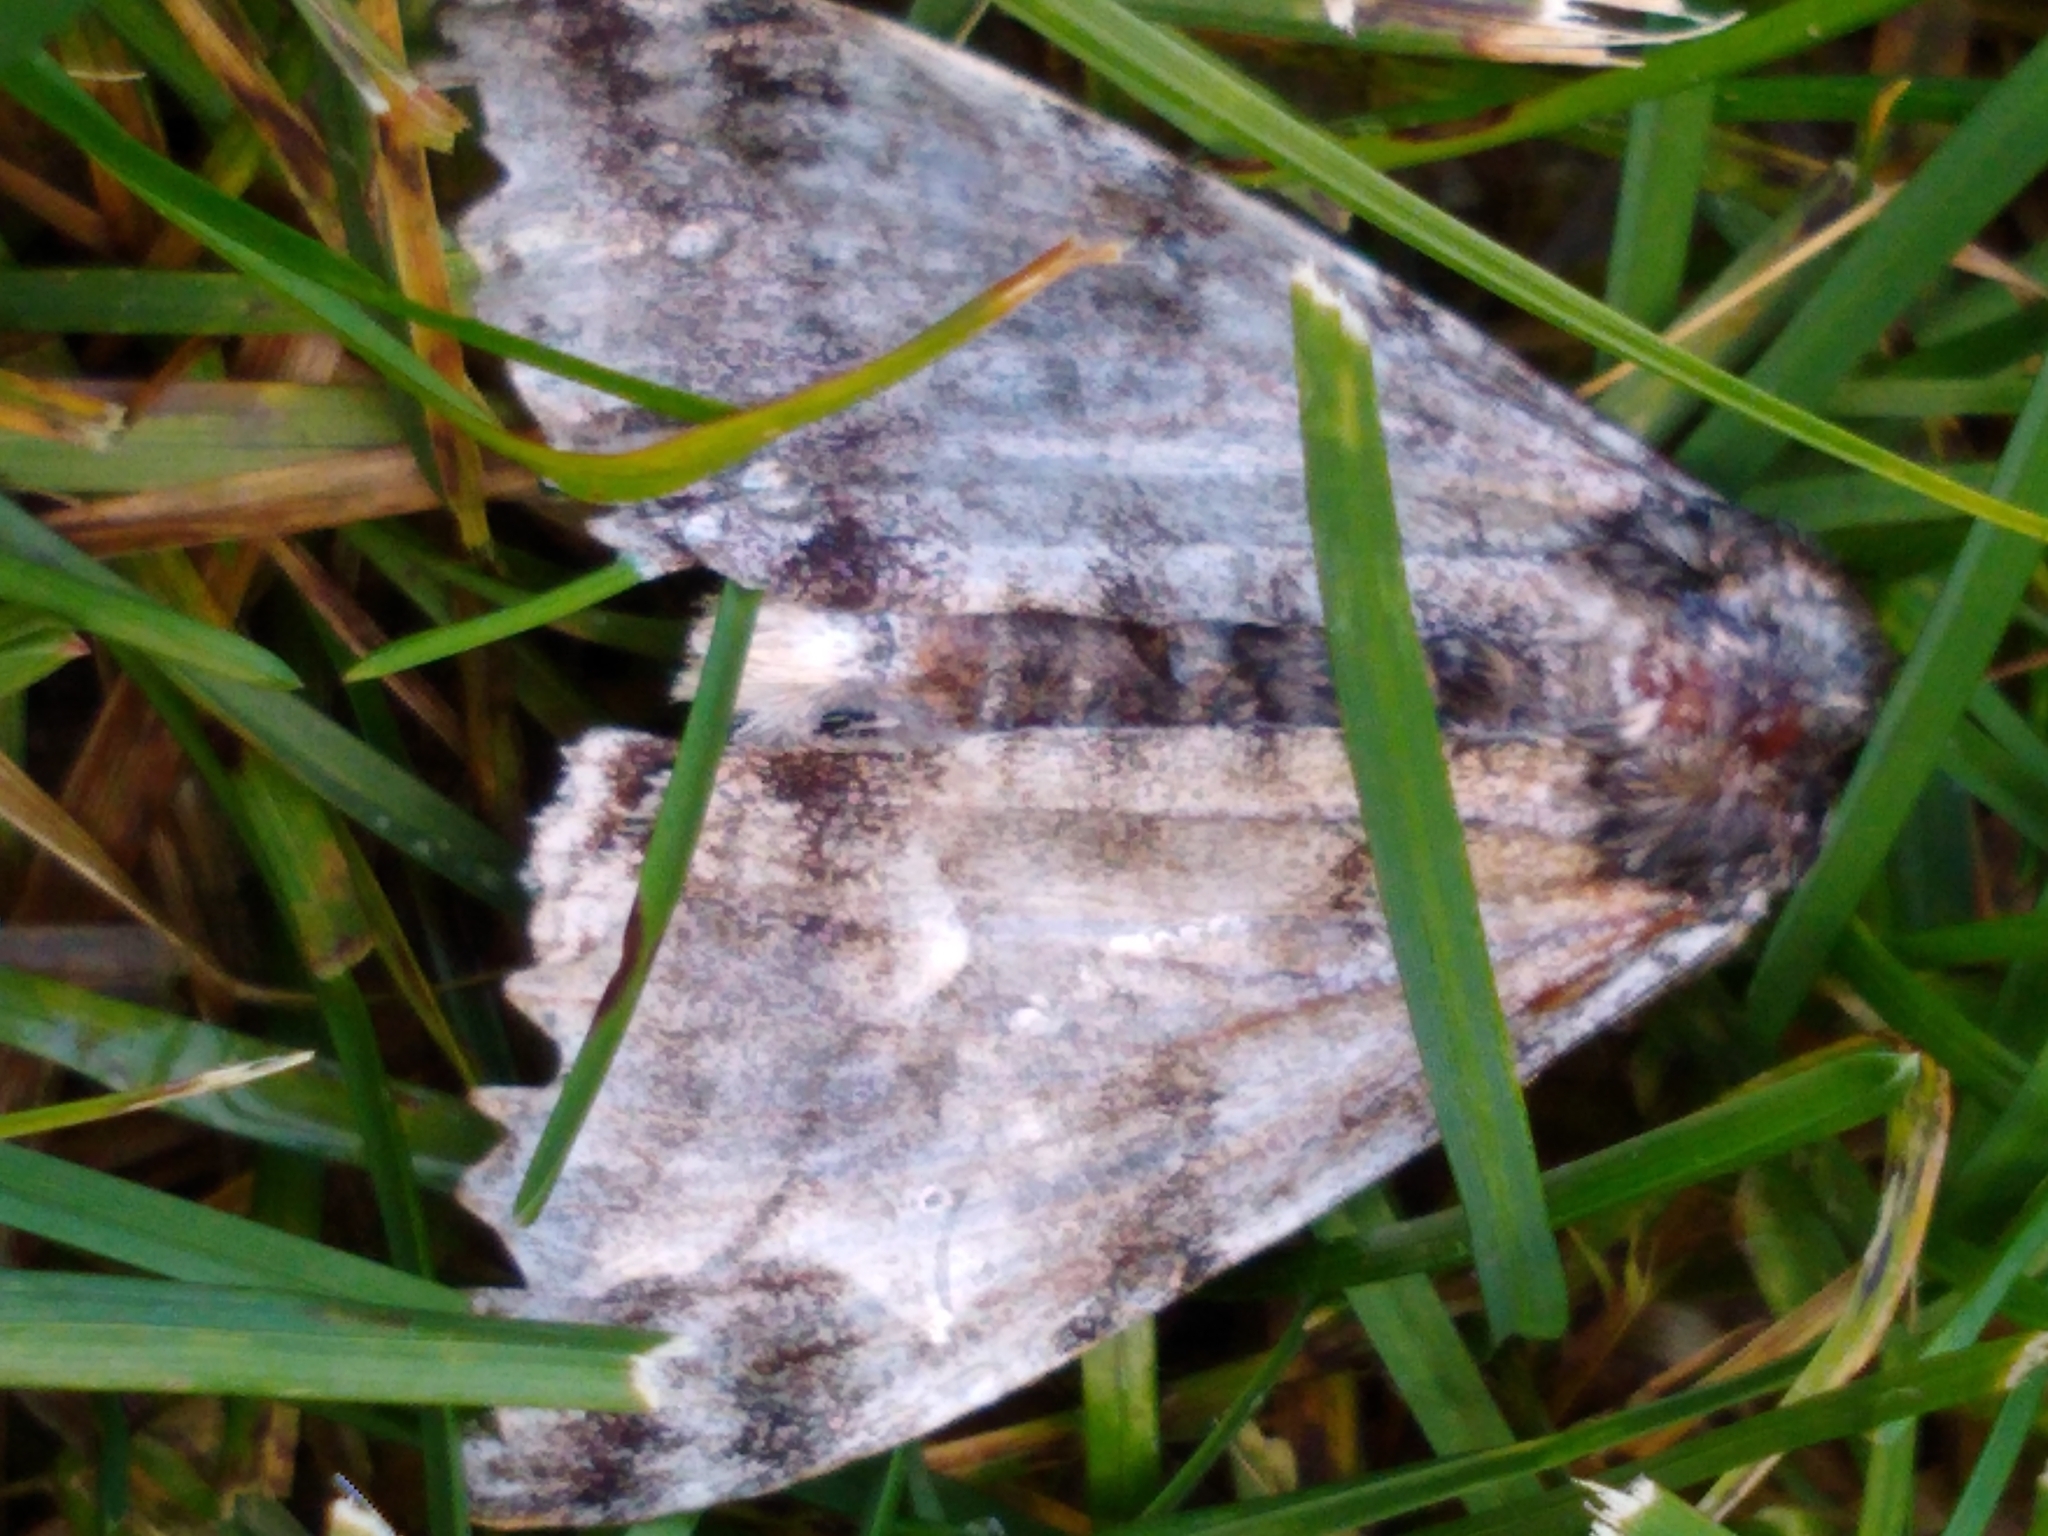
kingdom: Animalia
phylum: Arthropoda
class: Insecta
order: Lepidoptera
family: Erebidae
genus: Catocala
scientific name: Catocala relicta
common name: White underwing
